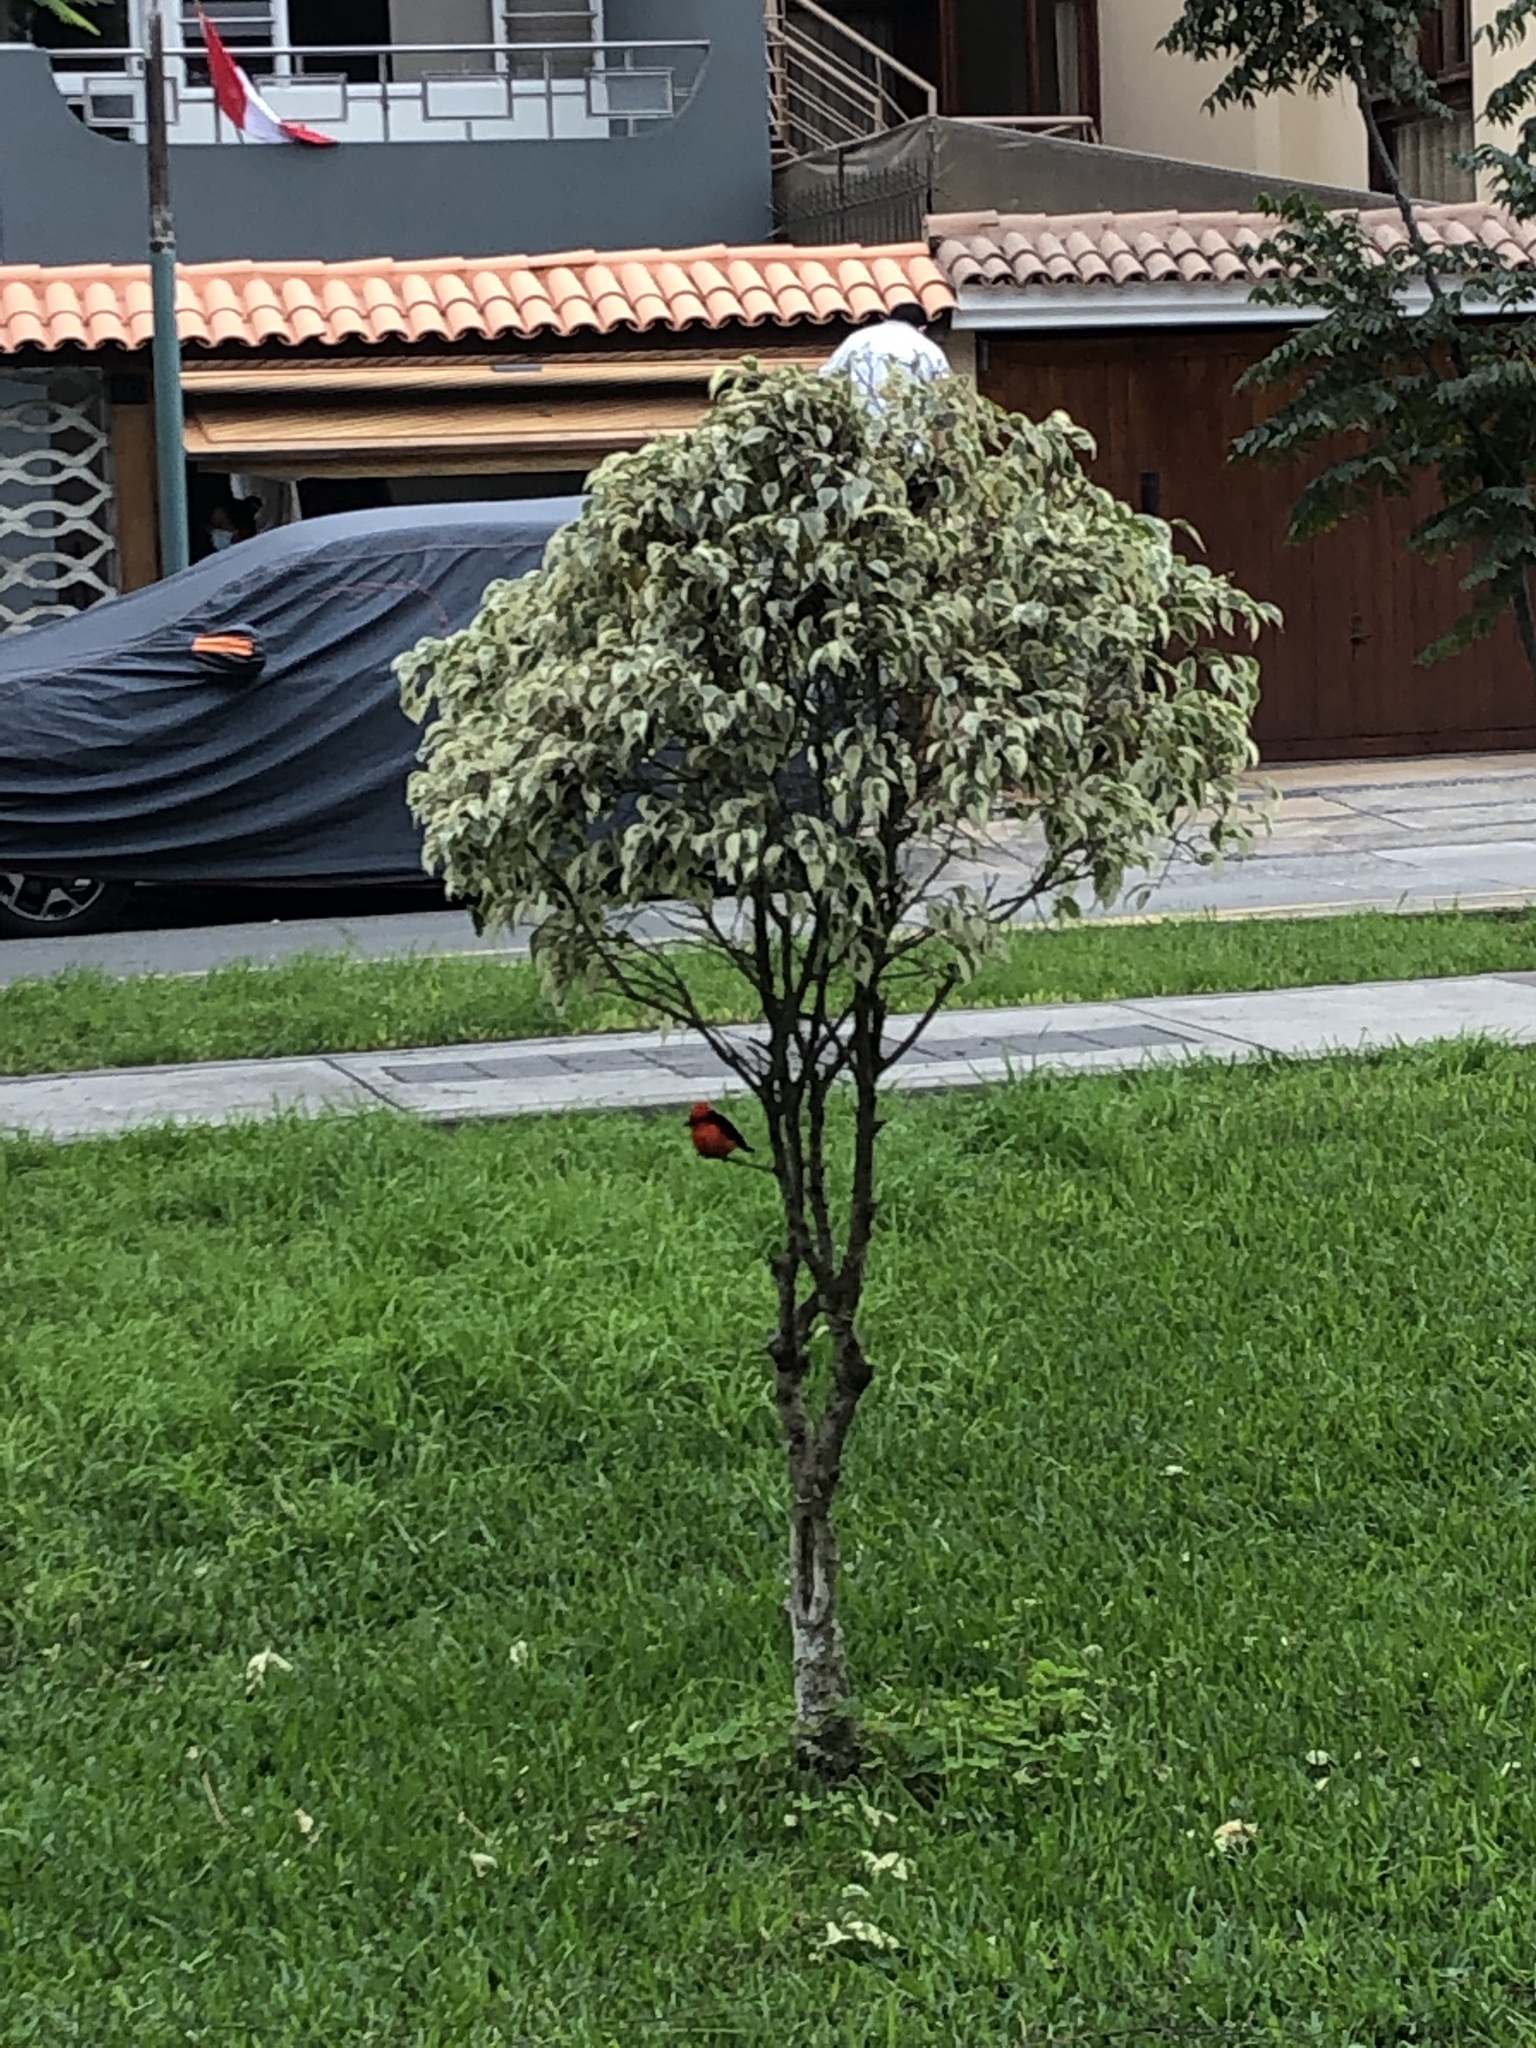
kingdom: Animalia
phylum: Chordata
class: Aves
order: Passeriformes
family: Tyrannidae
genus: Pyrocephalus
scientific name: Pyrocephalus rubinus
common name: Vermilion flycatcher
